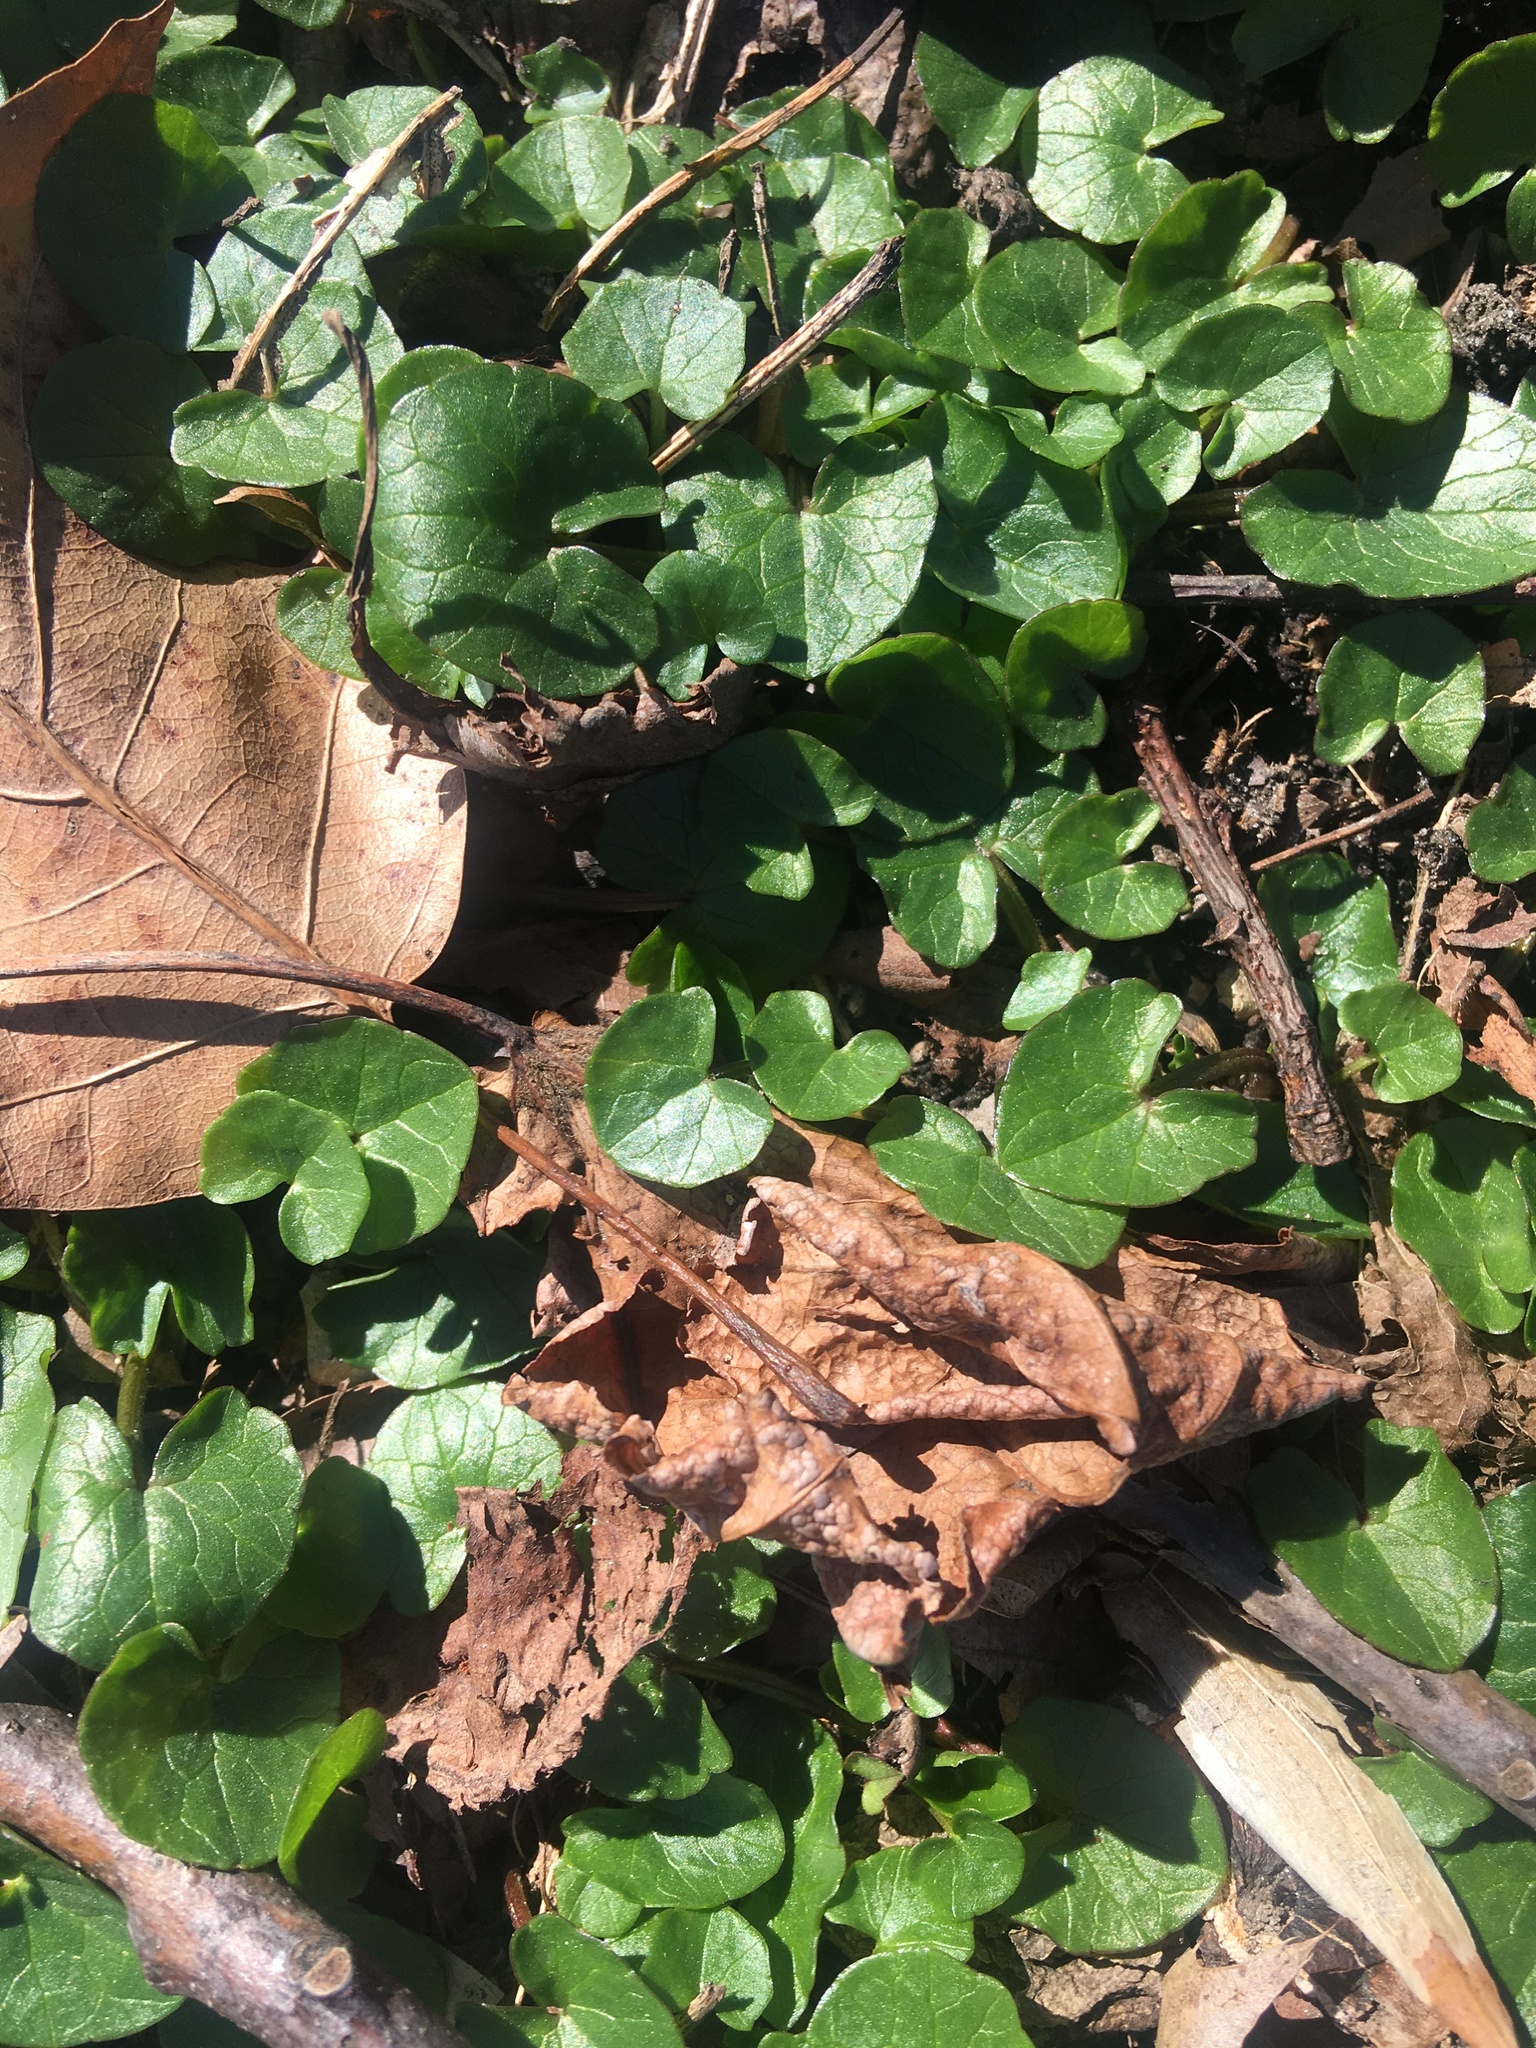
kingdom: Plantae
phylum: Tracheophyta
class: Magnoliopsida
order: Ranunculales
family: Ranunculaceae
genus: Ficaria
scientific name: Ficaria verna
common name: Lesser celandine
